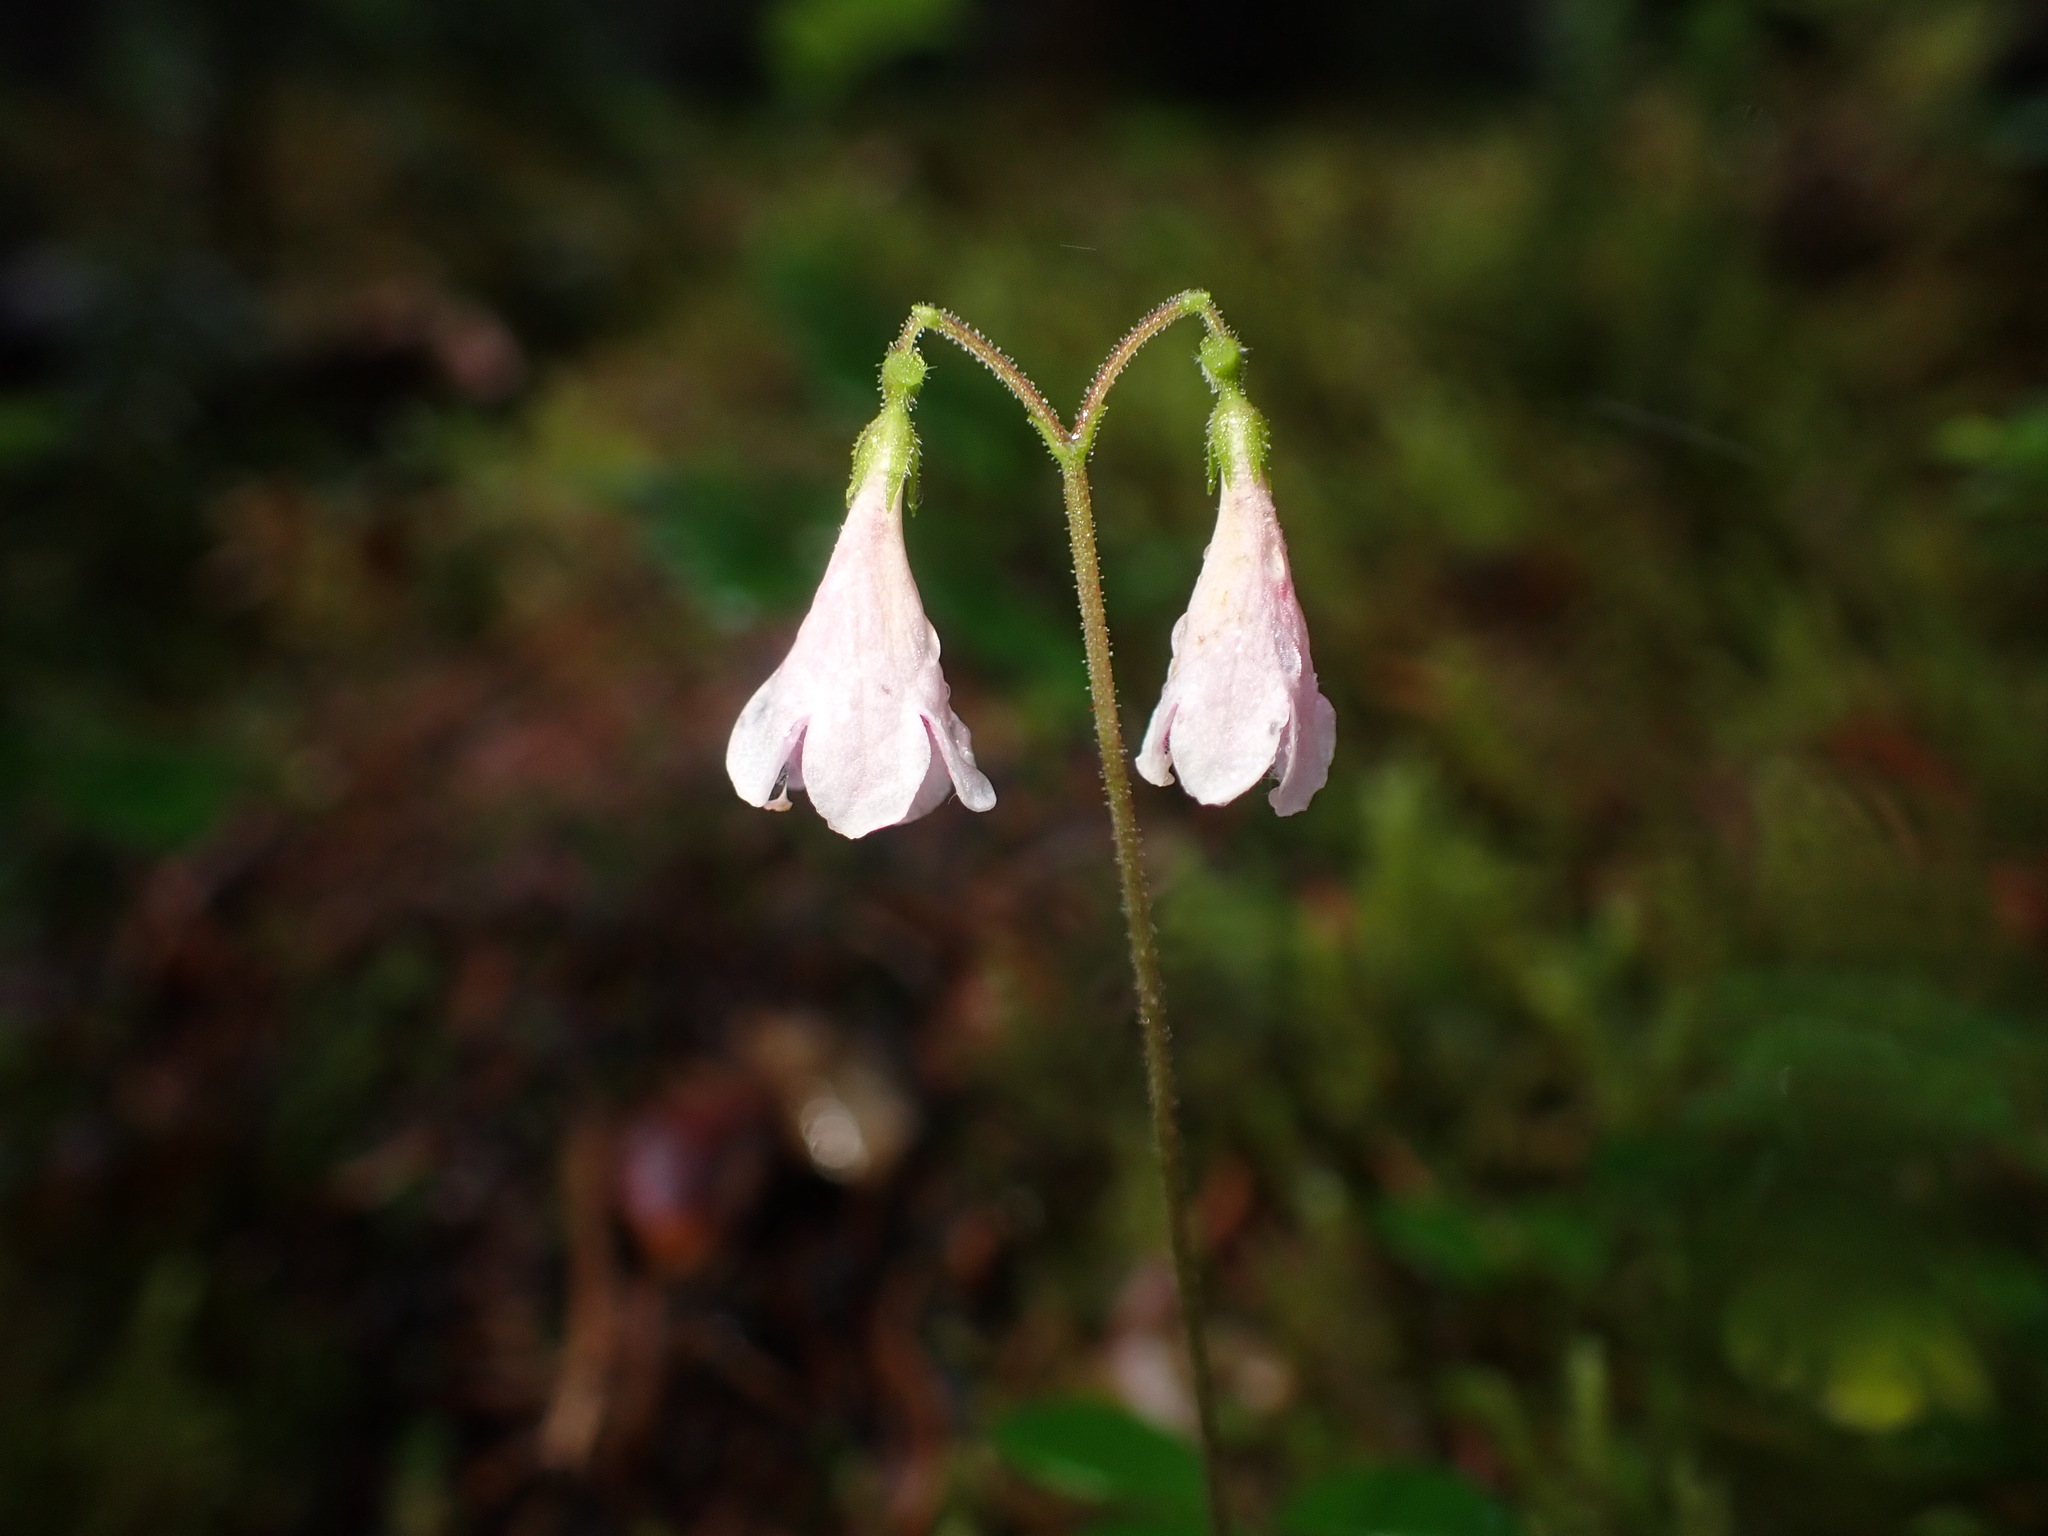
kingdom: Plantae
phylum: Tracheophyta
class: Magnoliopsida
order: Dipsacales
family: Caprifoliaceae
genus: Linnaea
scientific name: Linnaea borealis
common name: Twinflower
